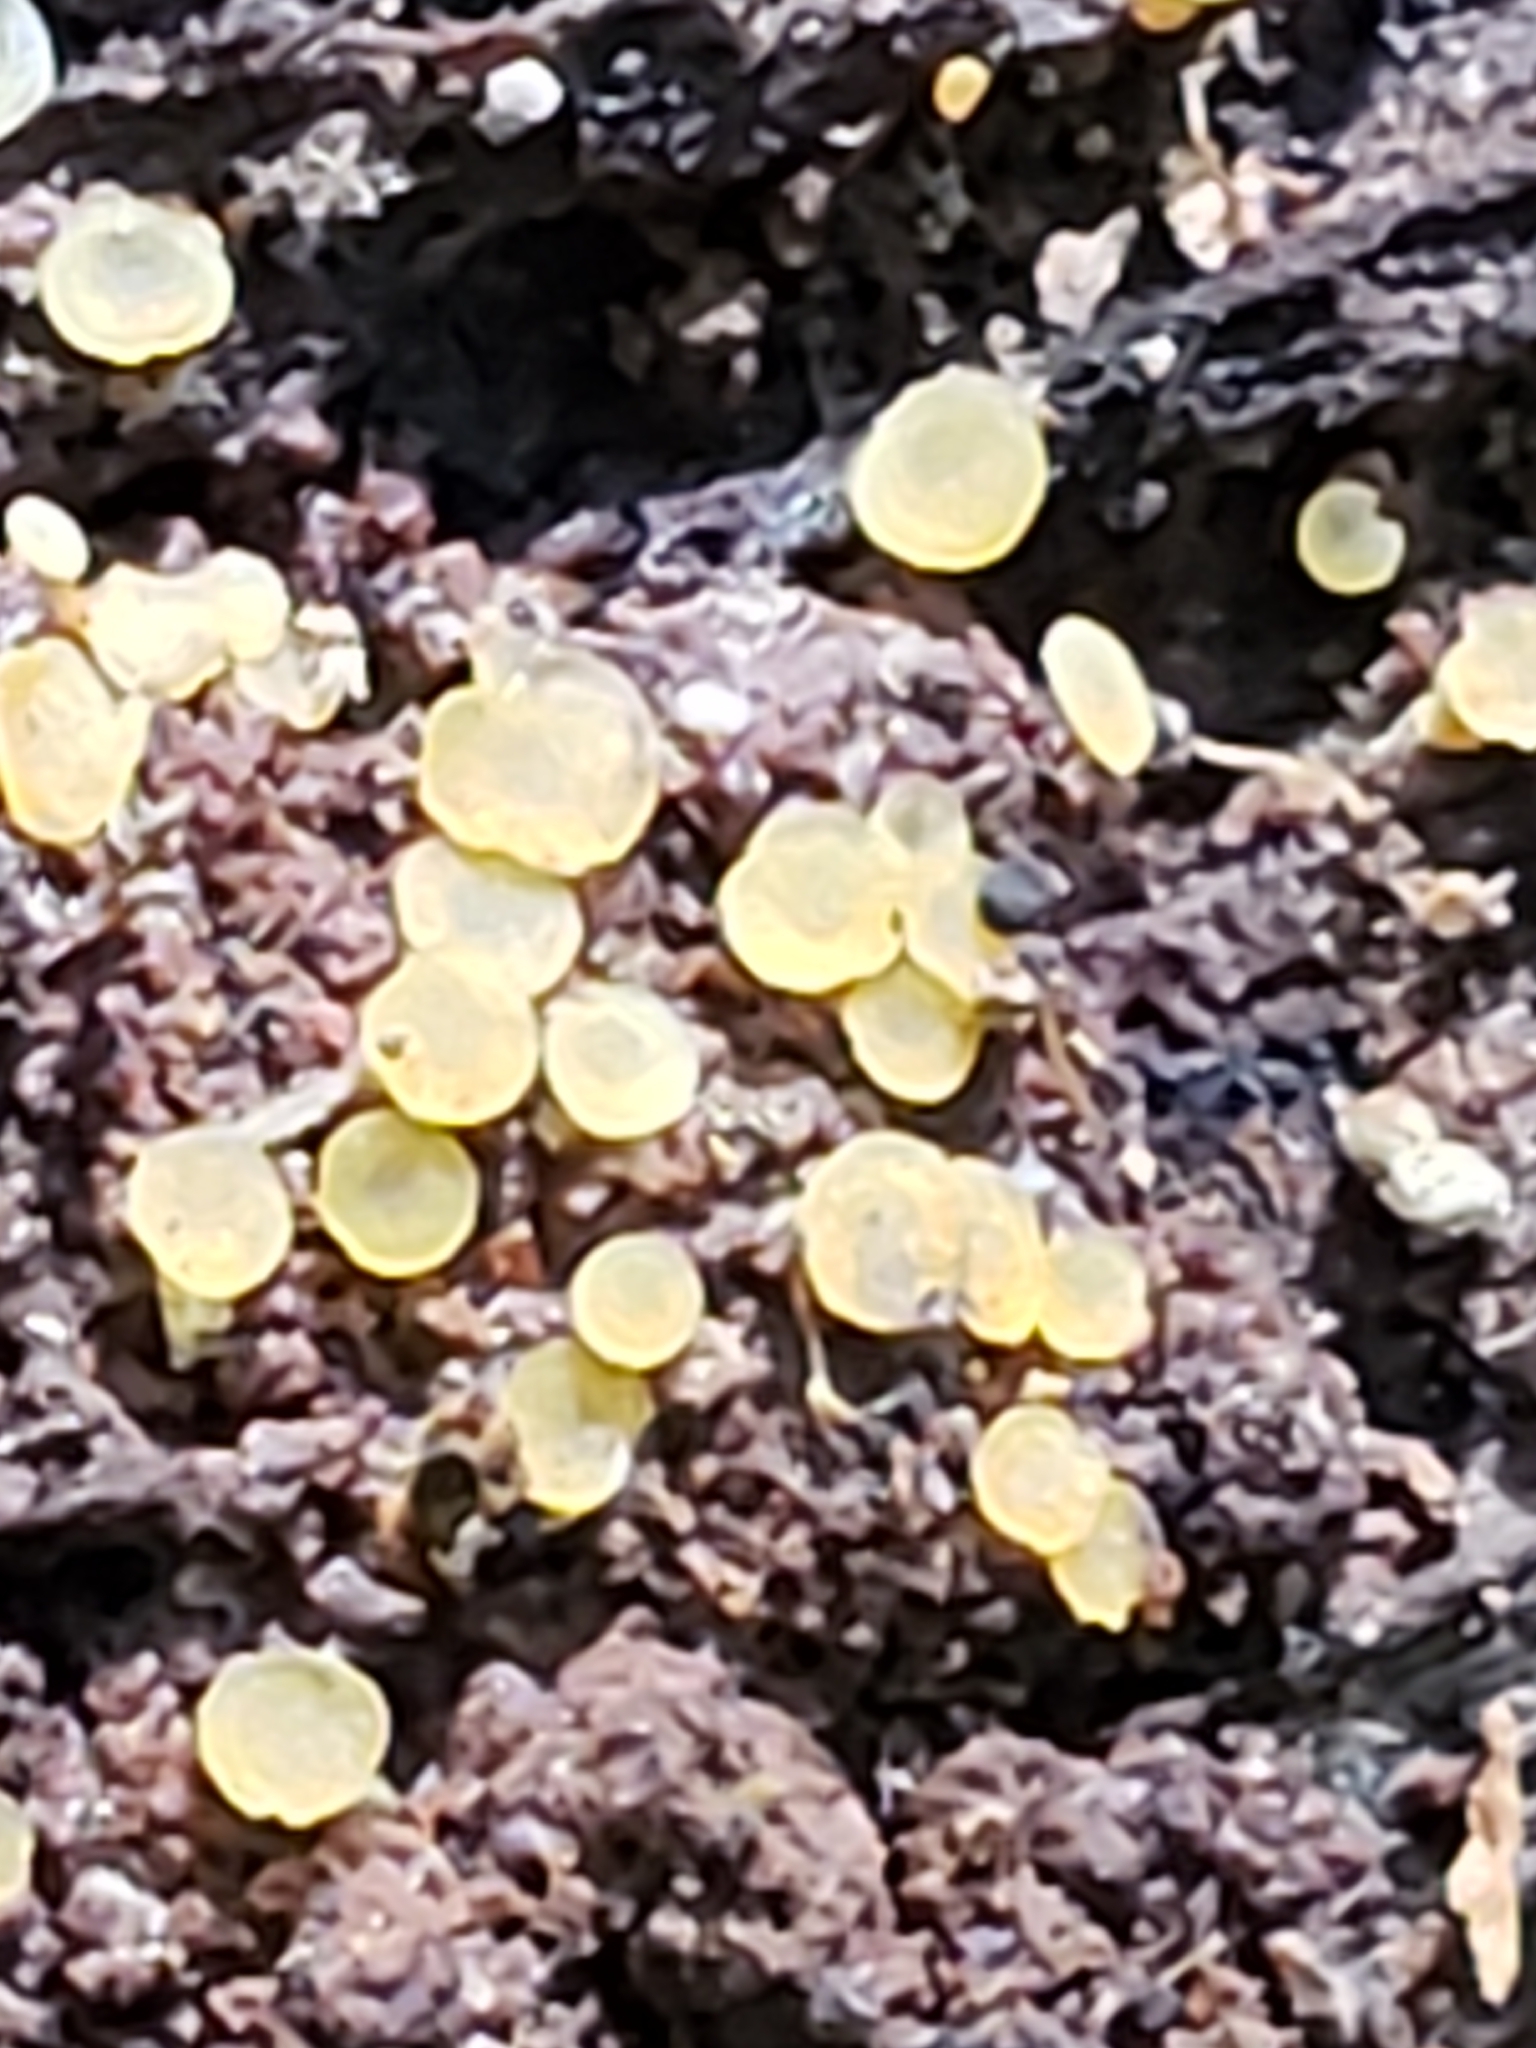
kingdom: Fungi
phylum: Ascomycota
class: Orbiliomycetes
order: Orbiliales
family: Orbiliaceae
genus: Orbilia
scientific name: Orbilia
